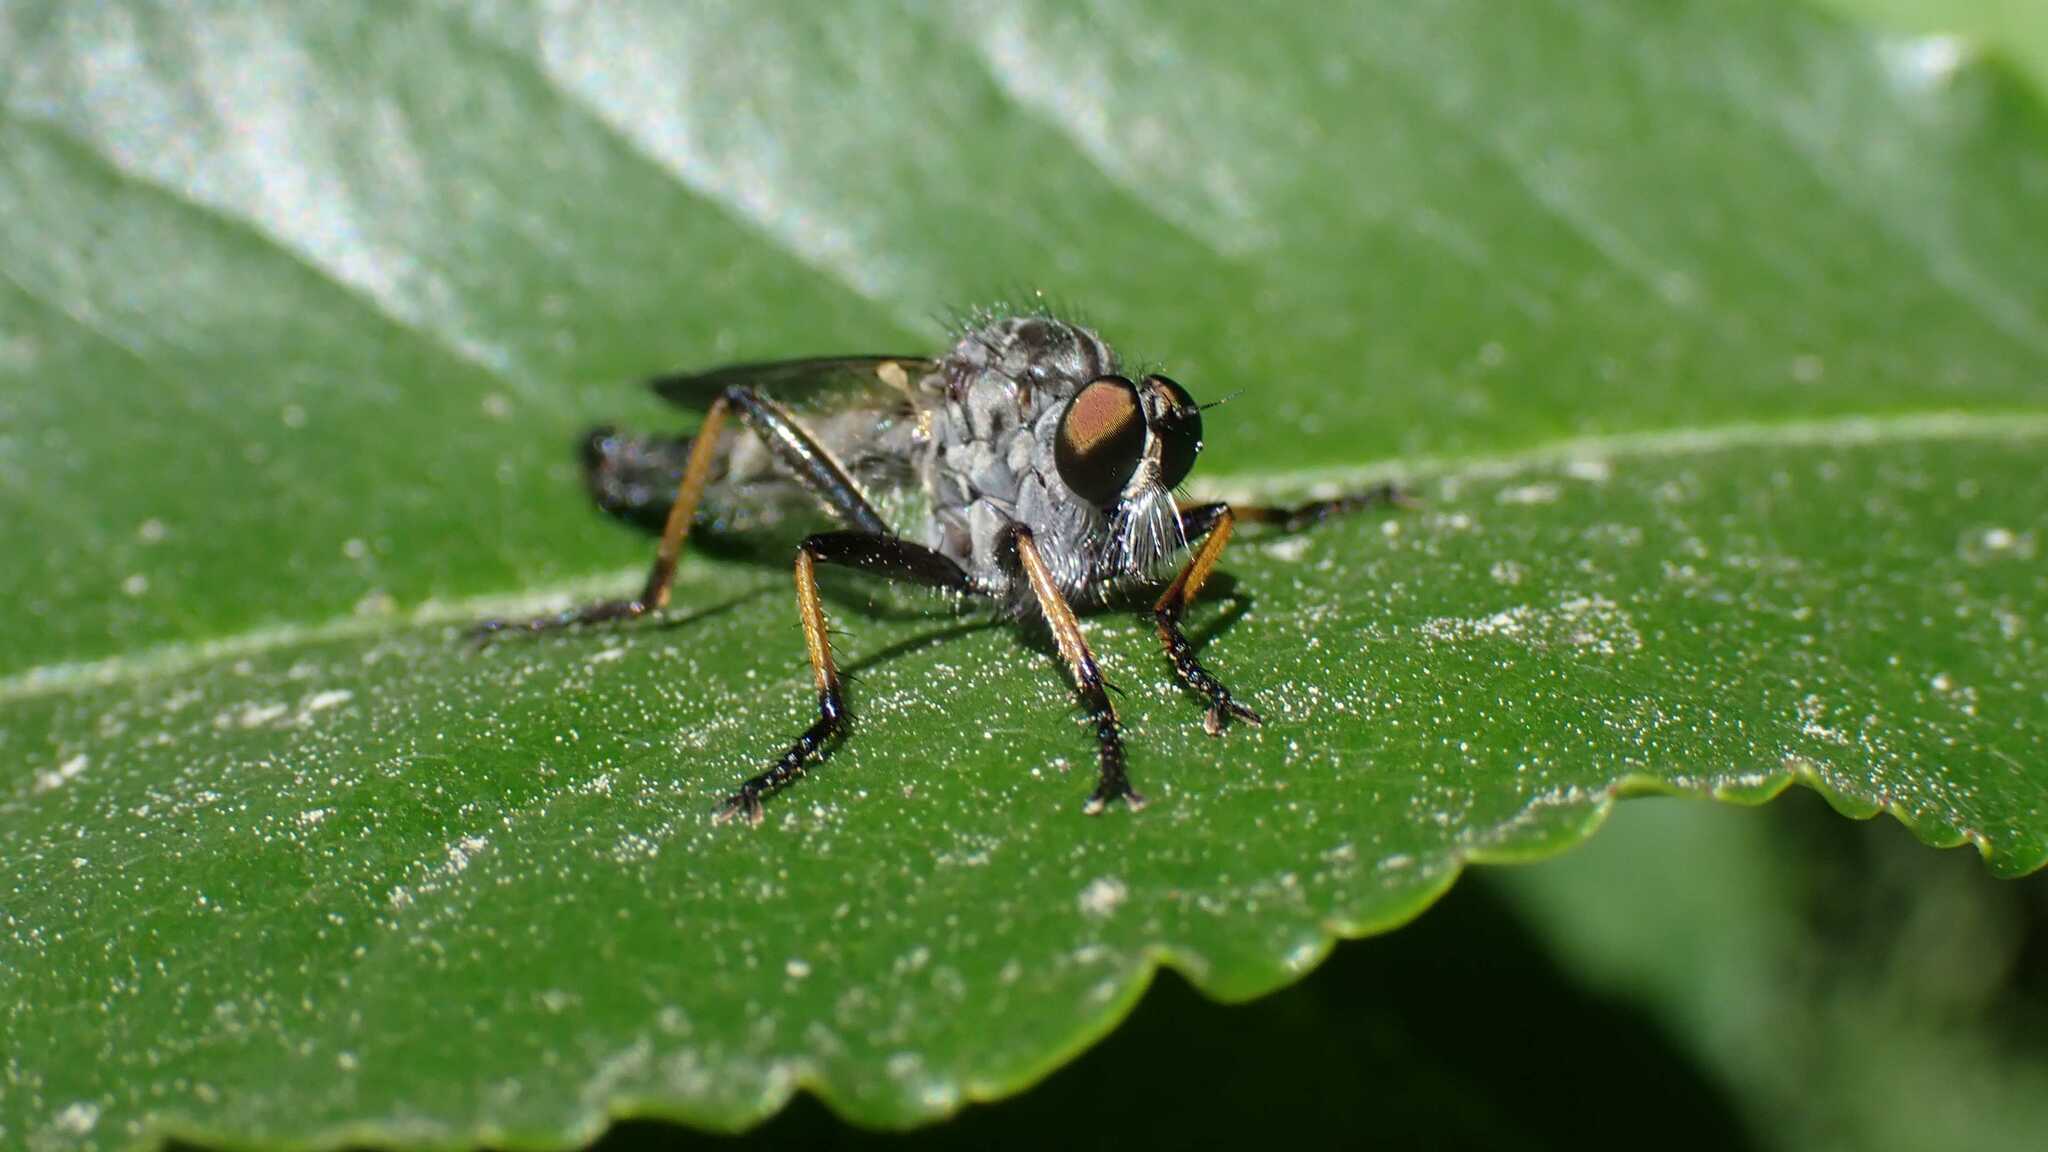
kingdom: Animalia
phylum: Arthropoda
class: Insecta
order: Diptera
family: Asilidae
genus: Neoitamus
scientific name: Neoitamus cyanurus
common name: Common awl robberfly
